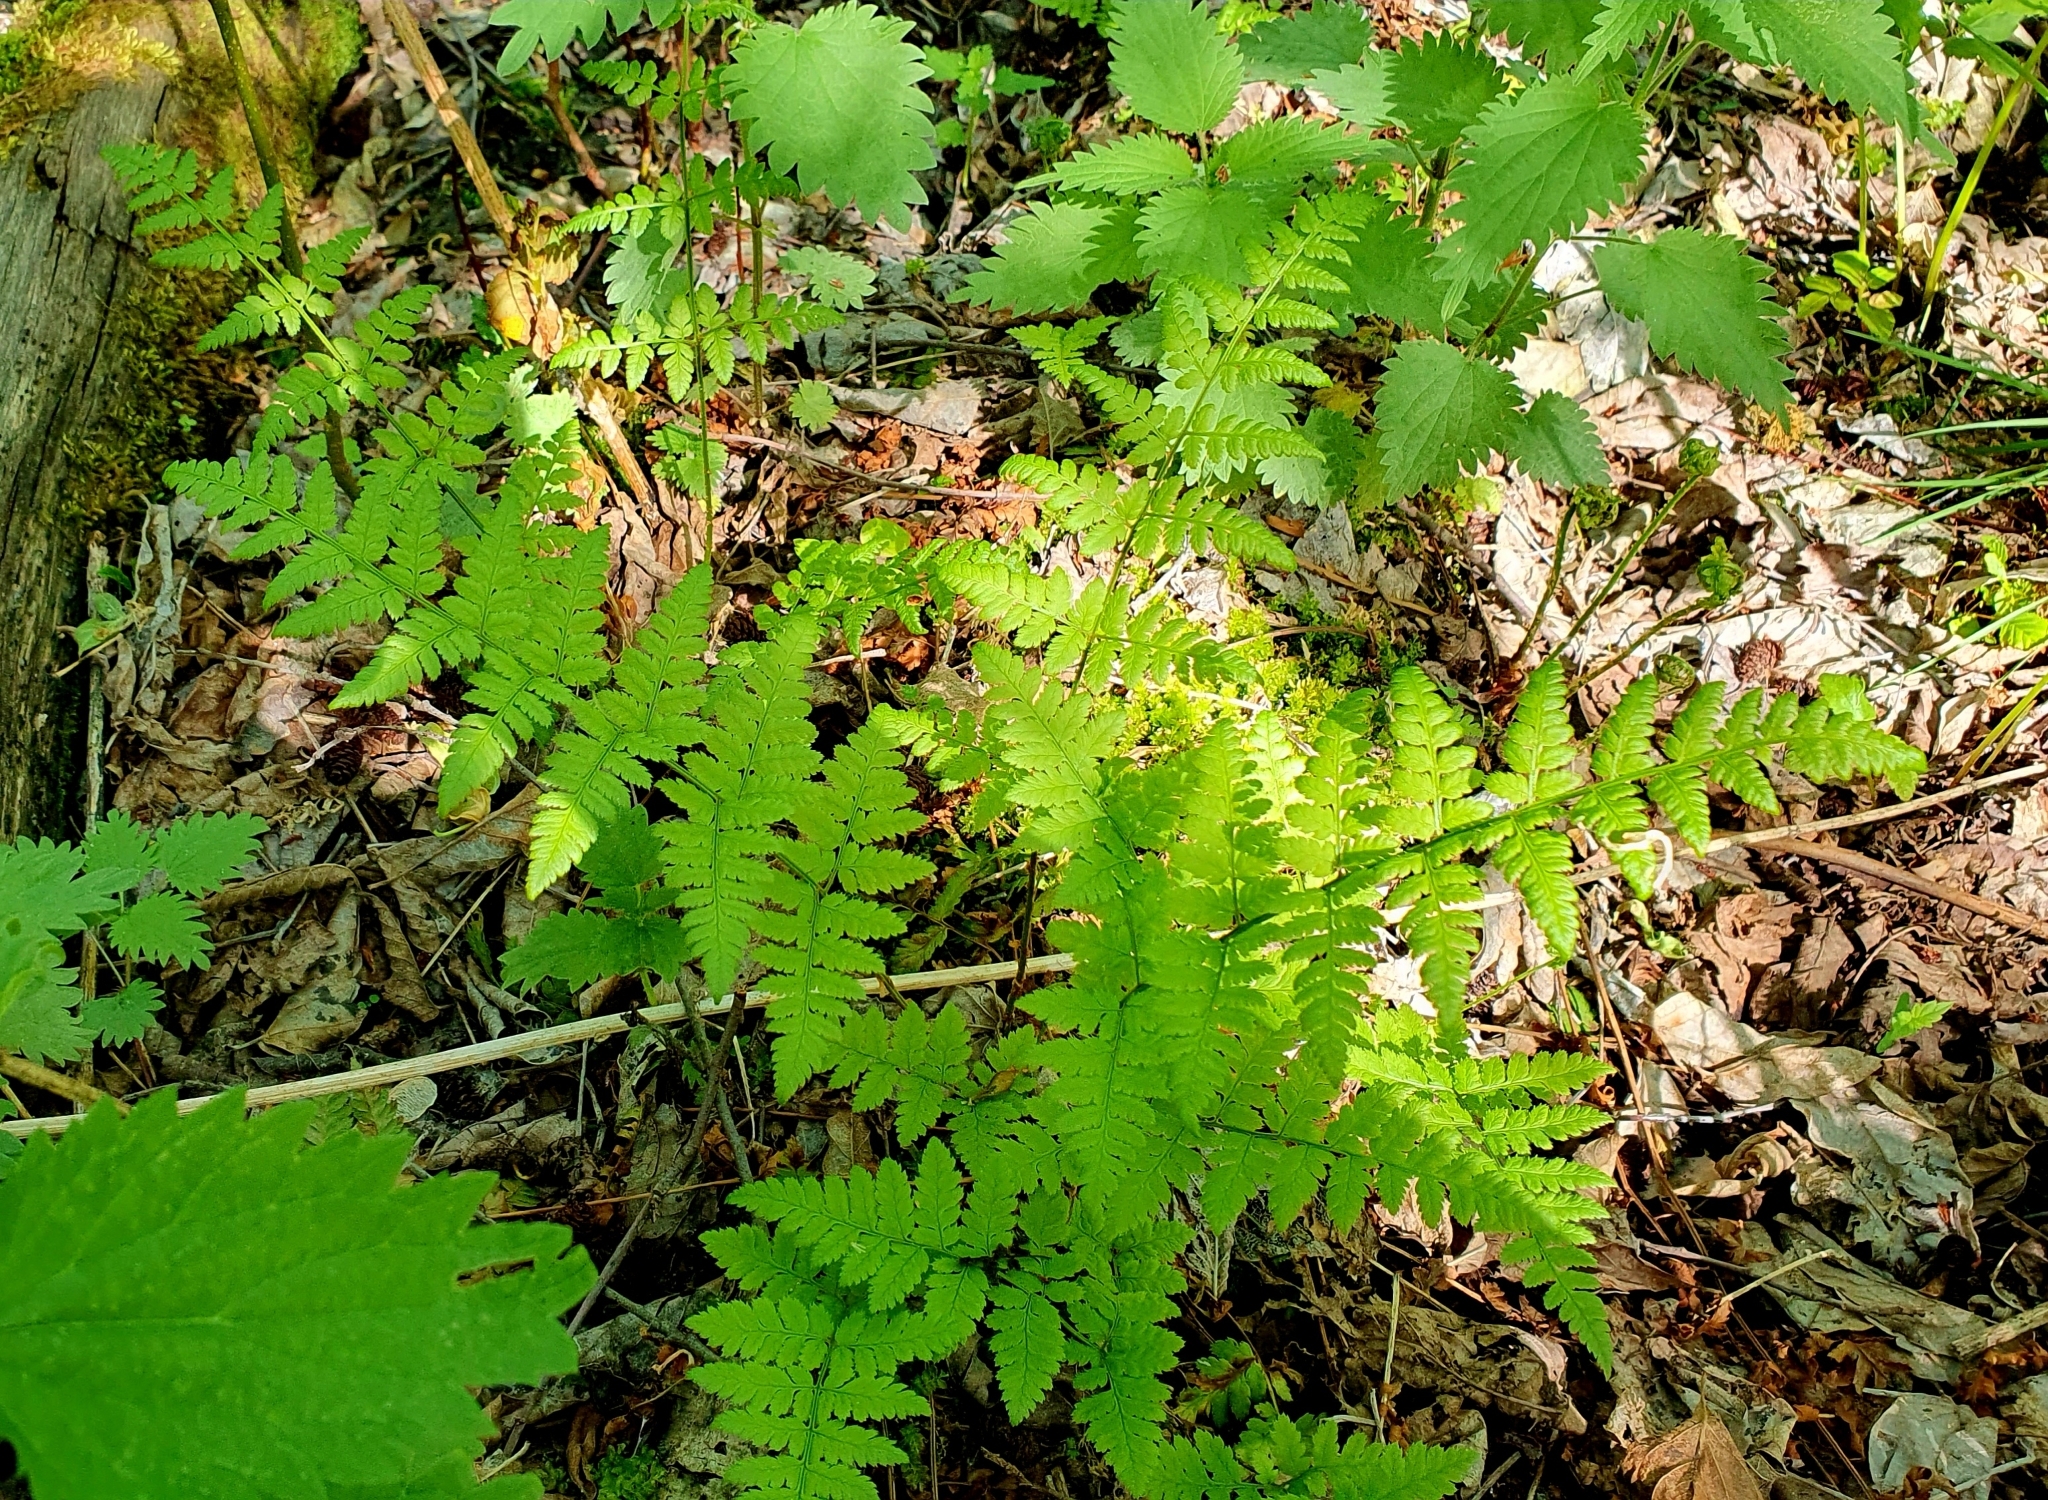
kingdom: Plantae
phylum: Tracheophyta
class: Polypodiopsida
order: Polypodiales
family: Dryopteridaceae
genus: Dryopteris
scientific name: Dryopteris carthusiana
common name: Narrow buckler-fern
